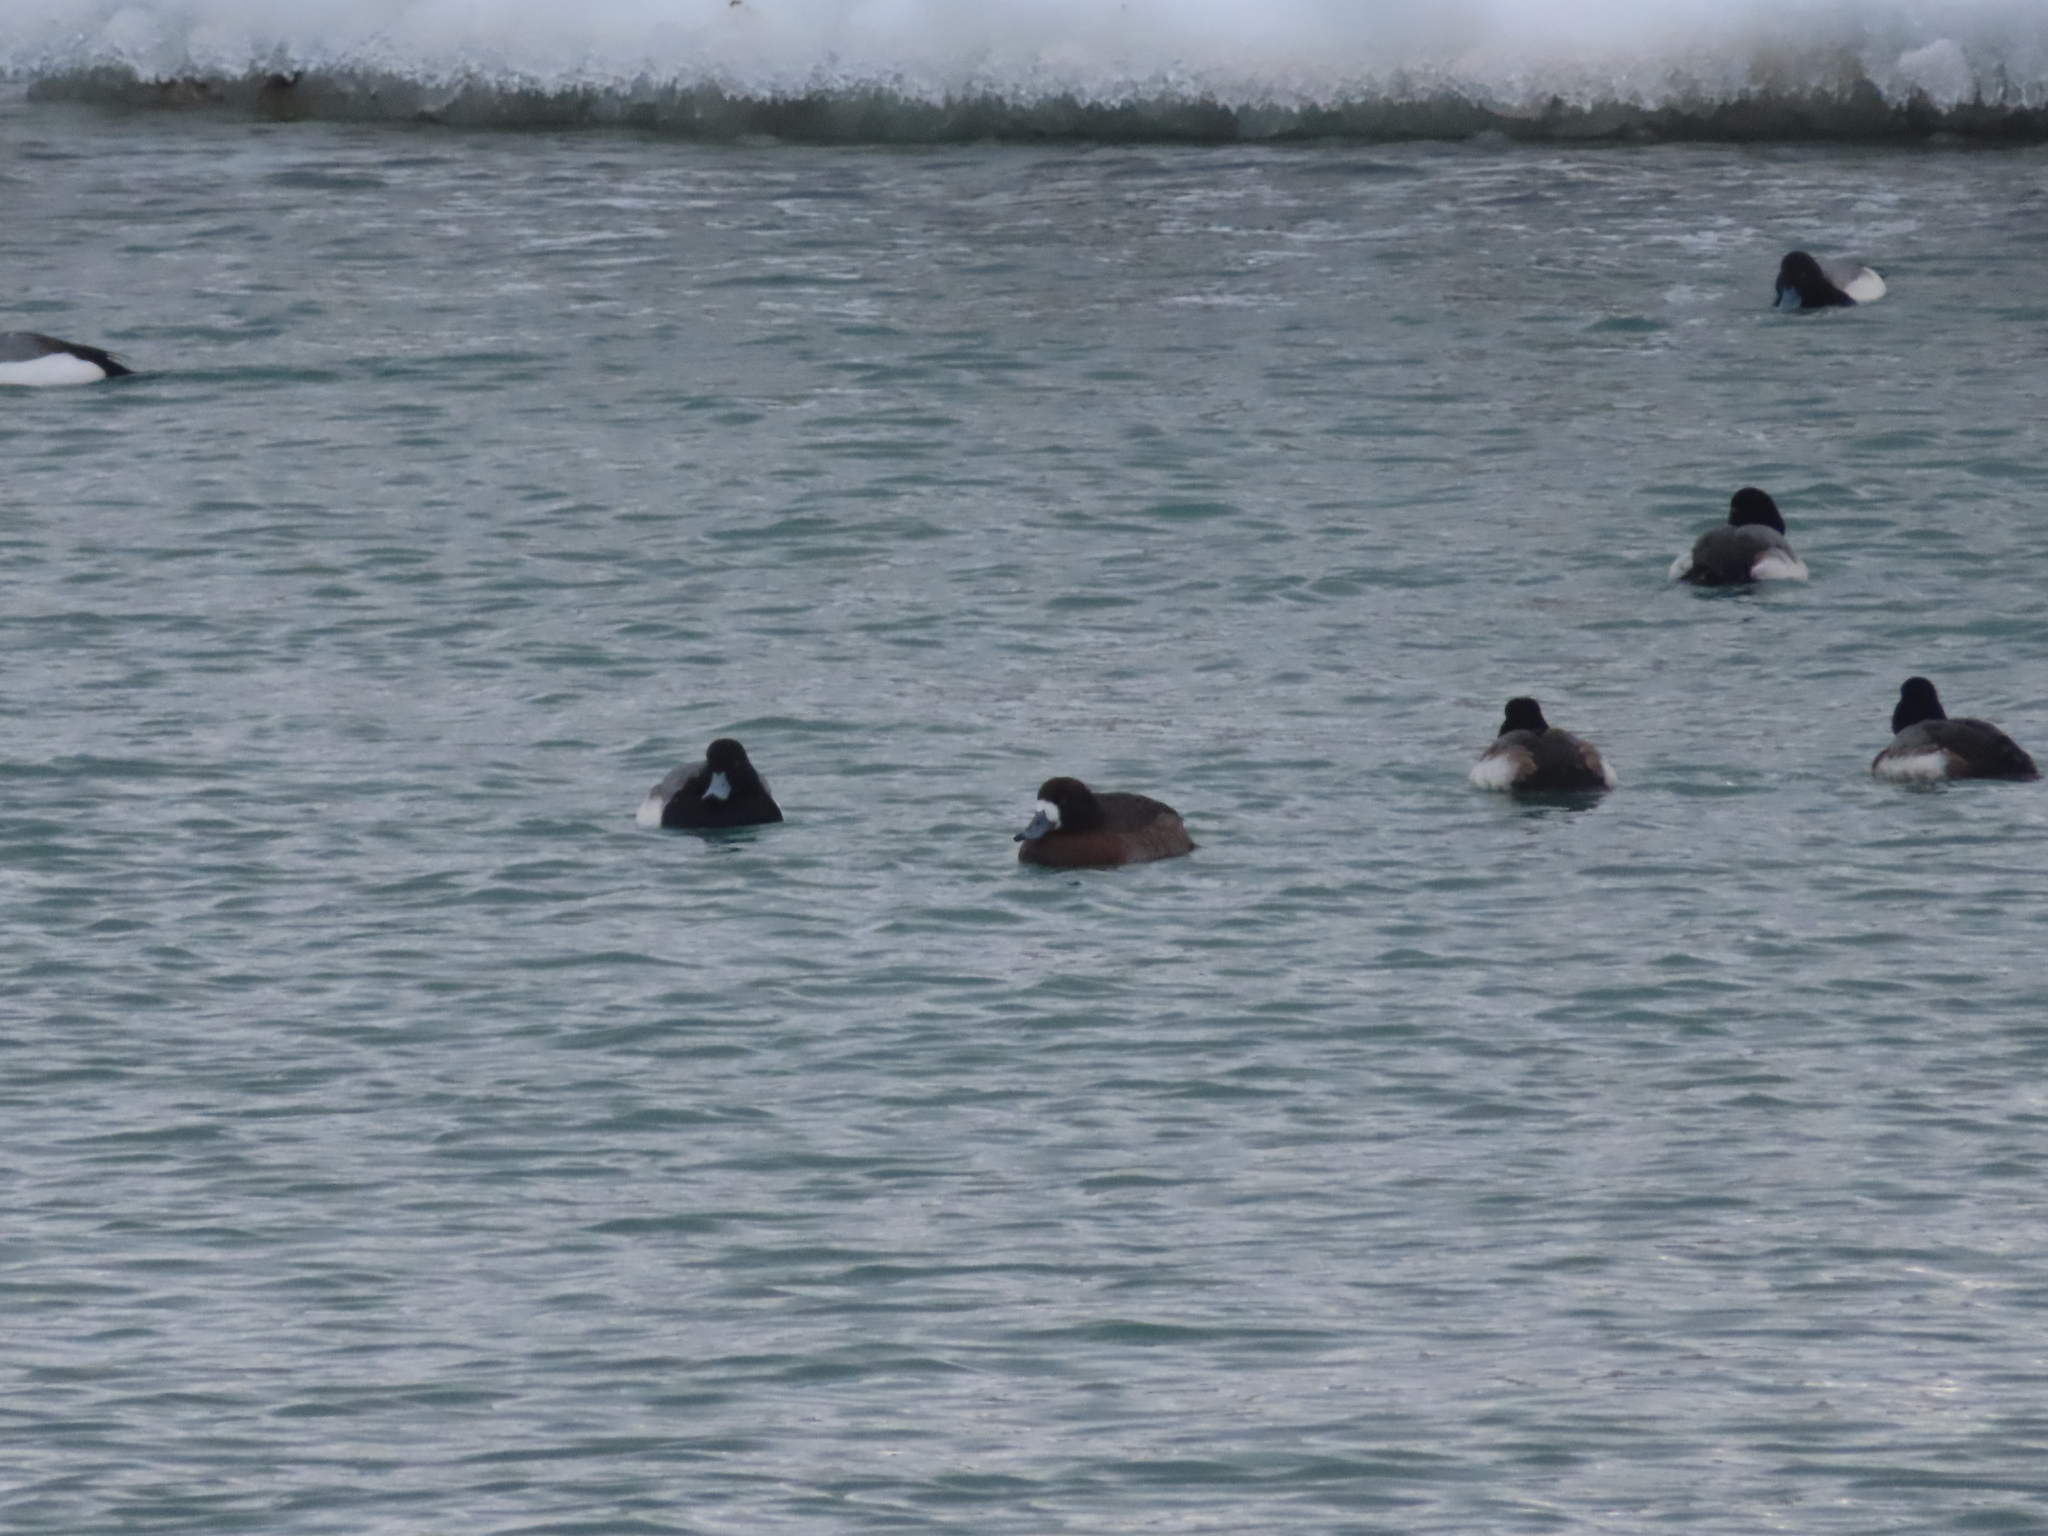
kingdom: Animalia
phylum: Chordata
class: Aves
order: Anseriformes
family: Anatidae
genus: Aythya
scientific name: Aythya marila
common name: Greater scaup
